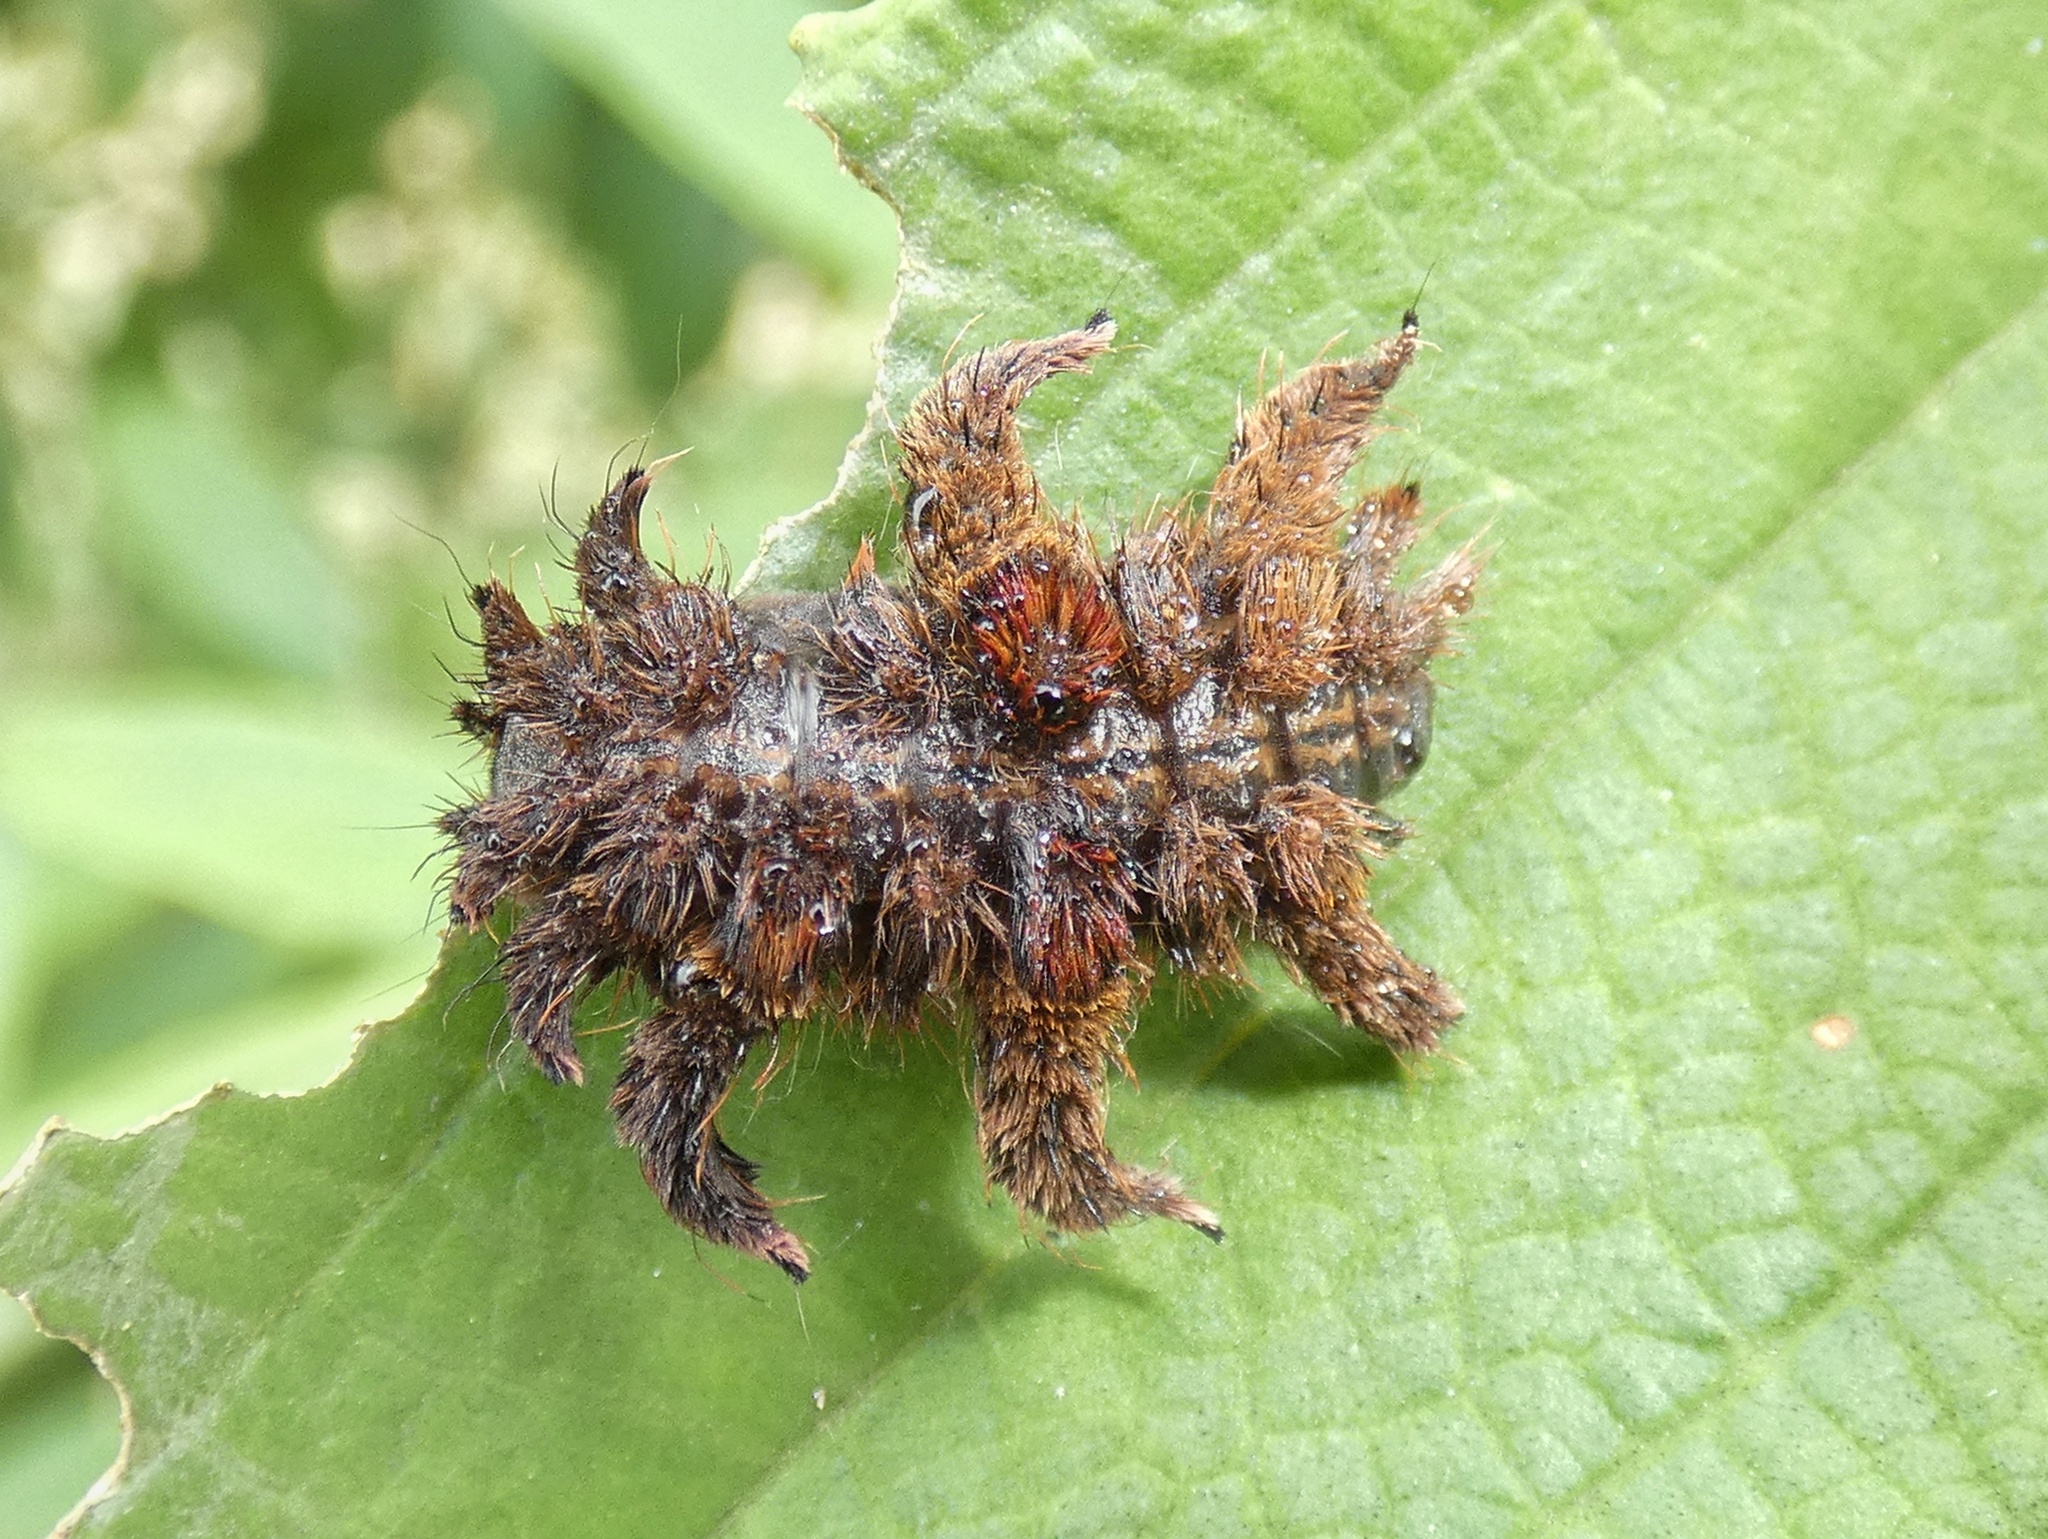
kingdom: Animalia
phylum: Arthropoda
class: Insecta
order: Lepidoptera
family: Limacodidae
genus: Phobetron
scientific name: Phobetron hipparchia
